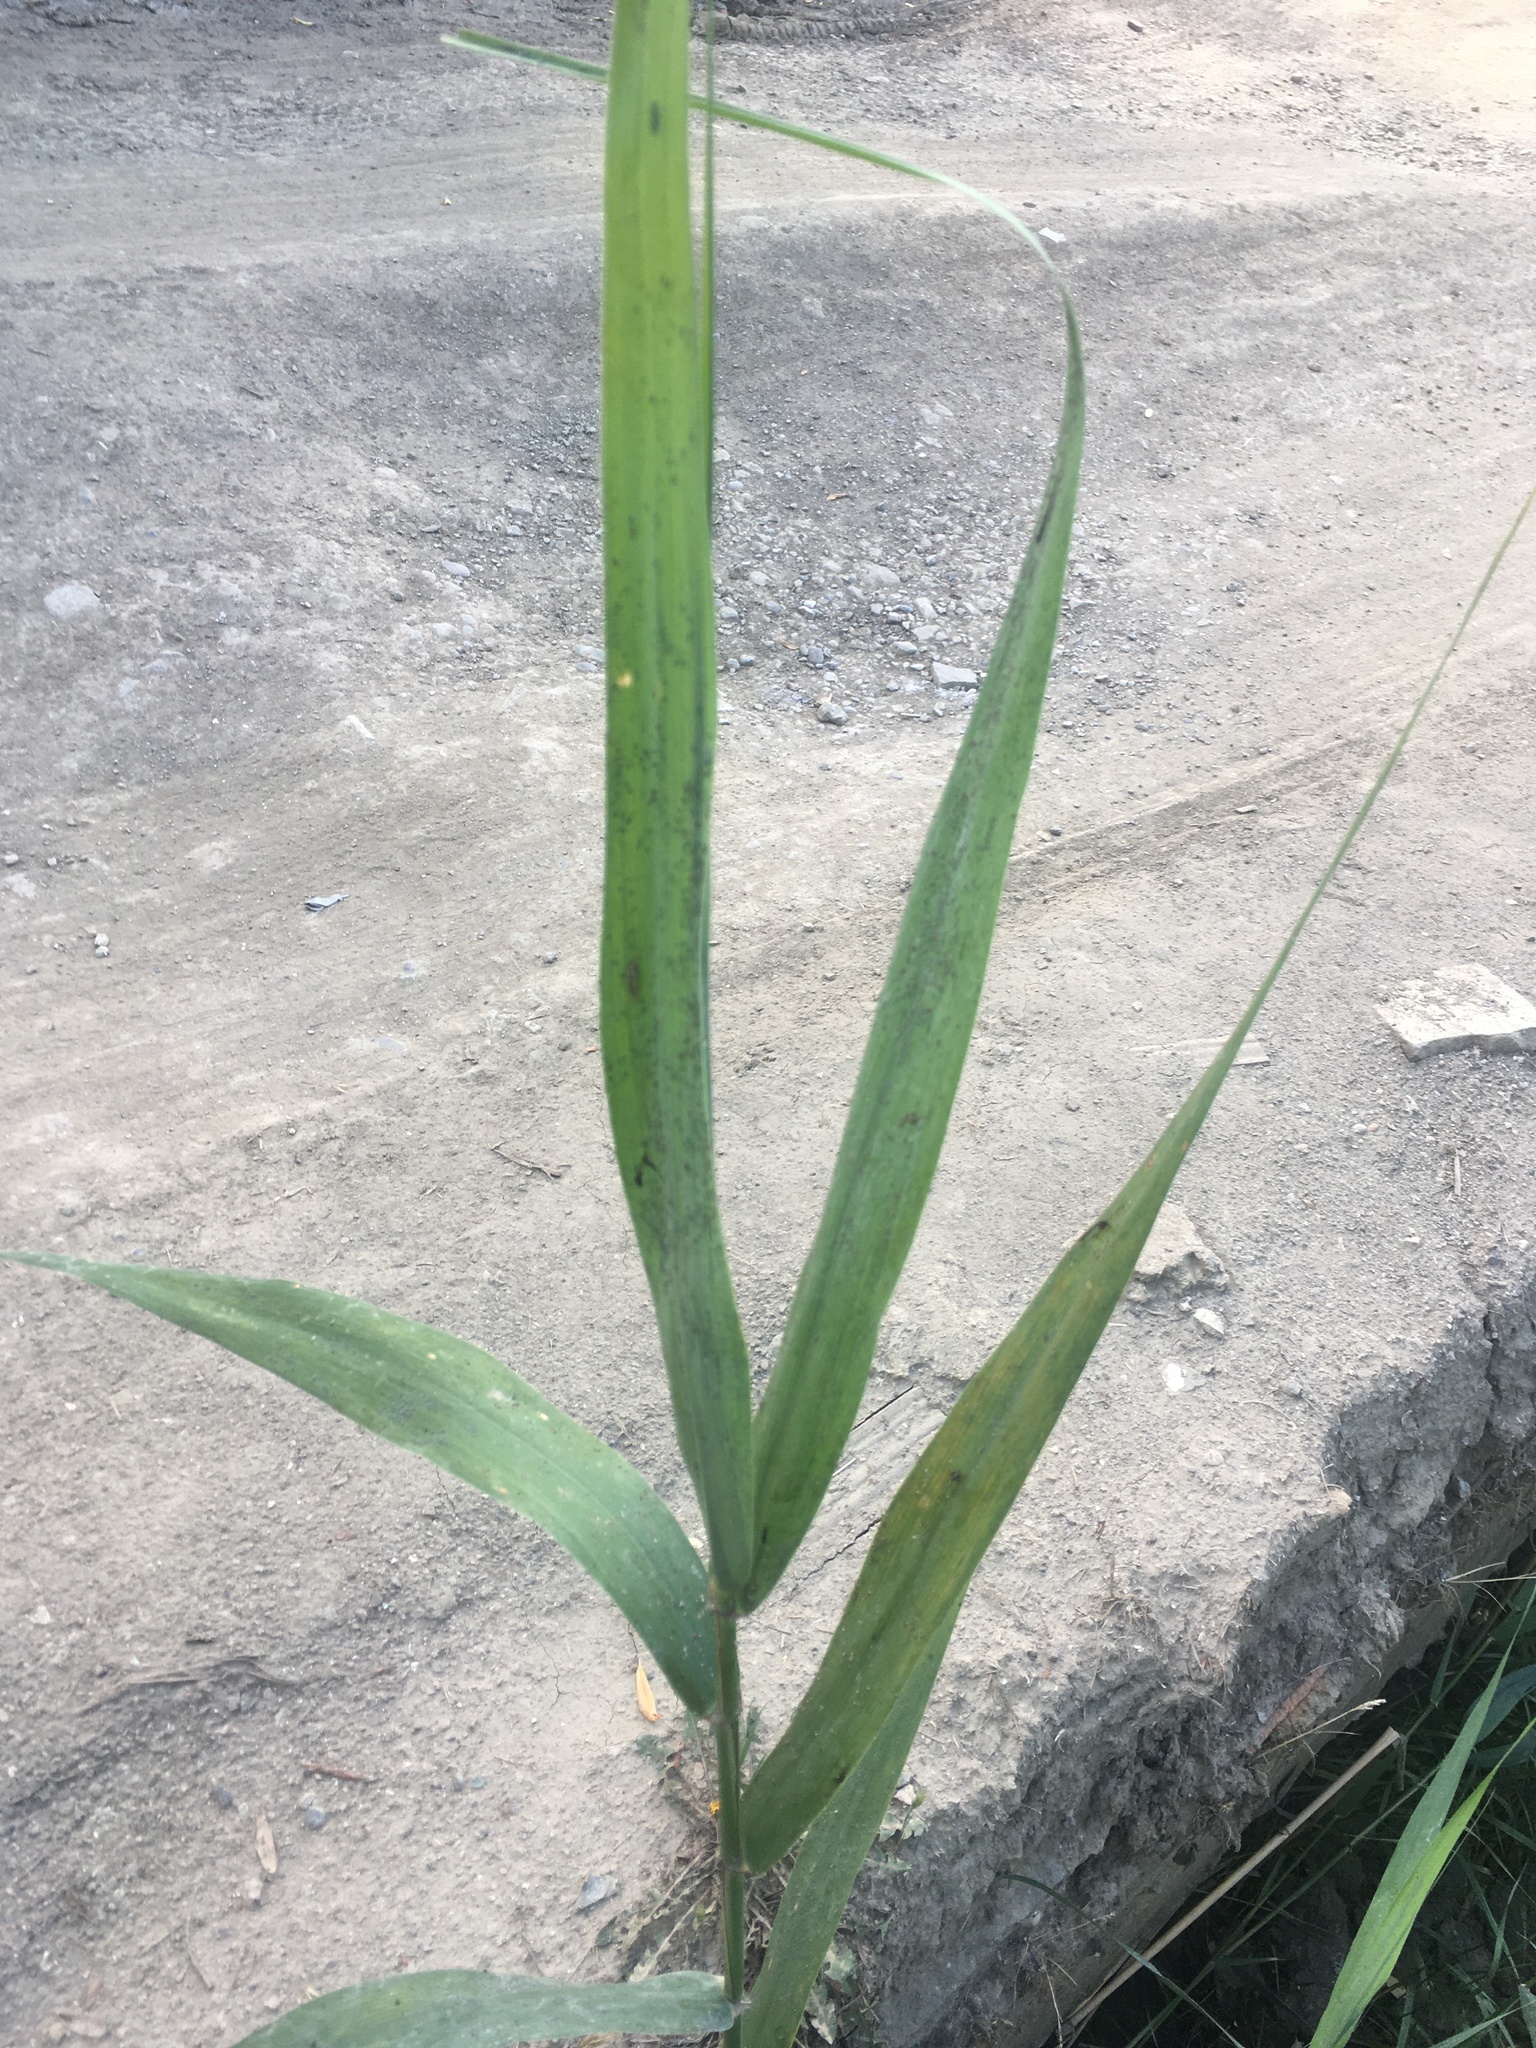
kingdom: Plantae
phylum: Tracheophyta
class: Liliopsida
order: Poales
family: Poaceae
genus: Phragmites
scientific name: Phragmites australis
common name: Common reed
